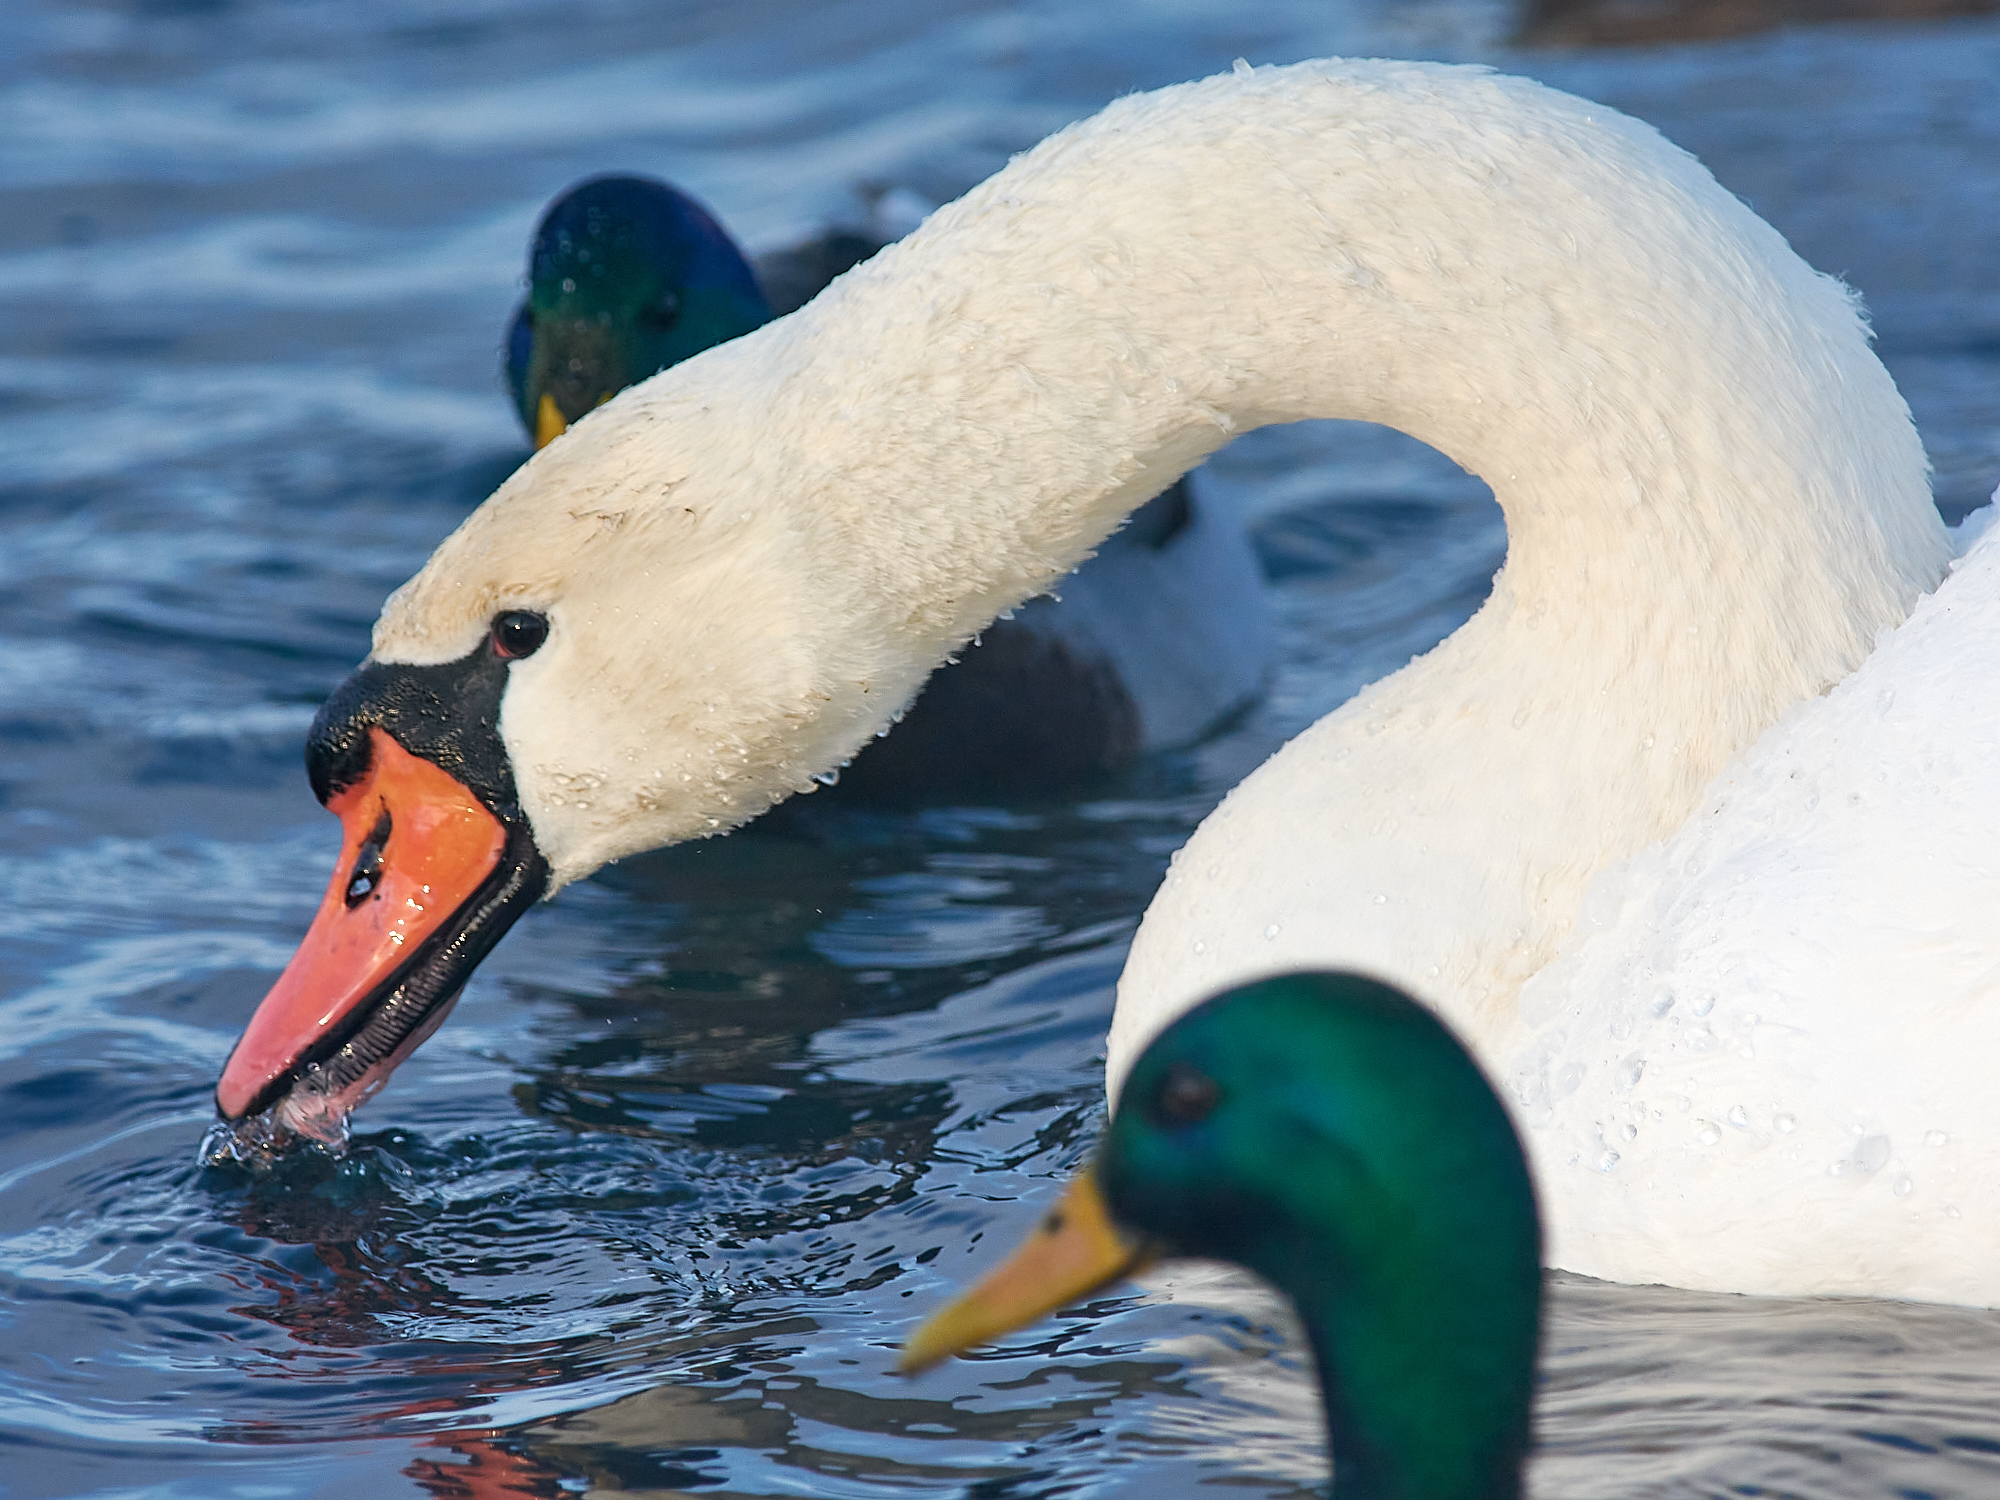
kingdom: Animalia
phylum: Chordata
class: Aves
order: Anseriformes
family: Anatidae
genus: Cygnus
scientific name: Cygnus olor
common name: Mute swan
